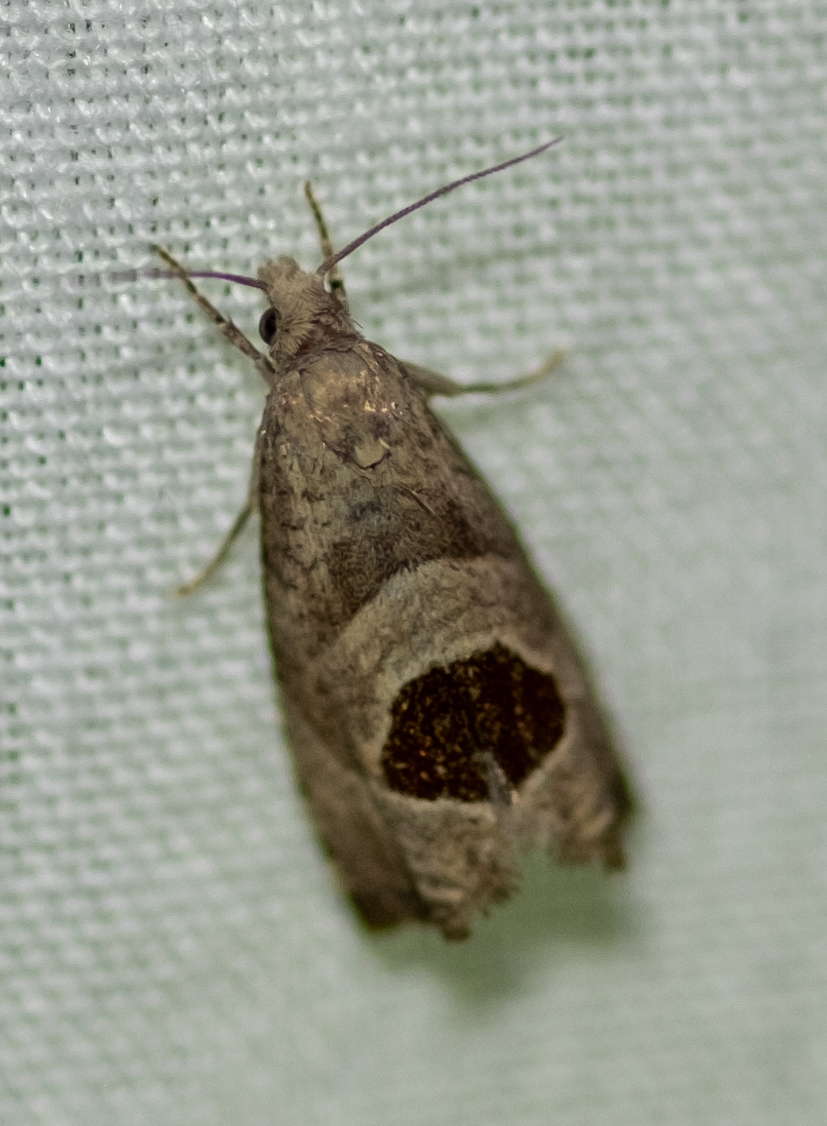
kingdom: Animalia
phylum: Arthropoda
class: Insecta
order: Lepidoptera
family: Tortricidae
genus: Notocelia
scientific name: Notocelia uddmanniana
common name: Bramble shoot moth
